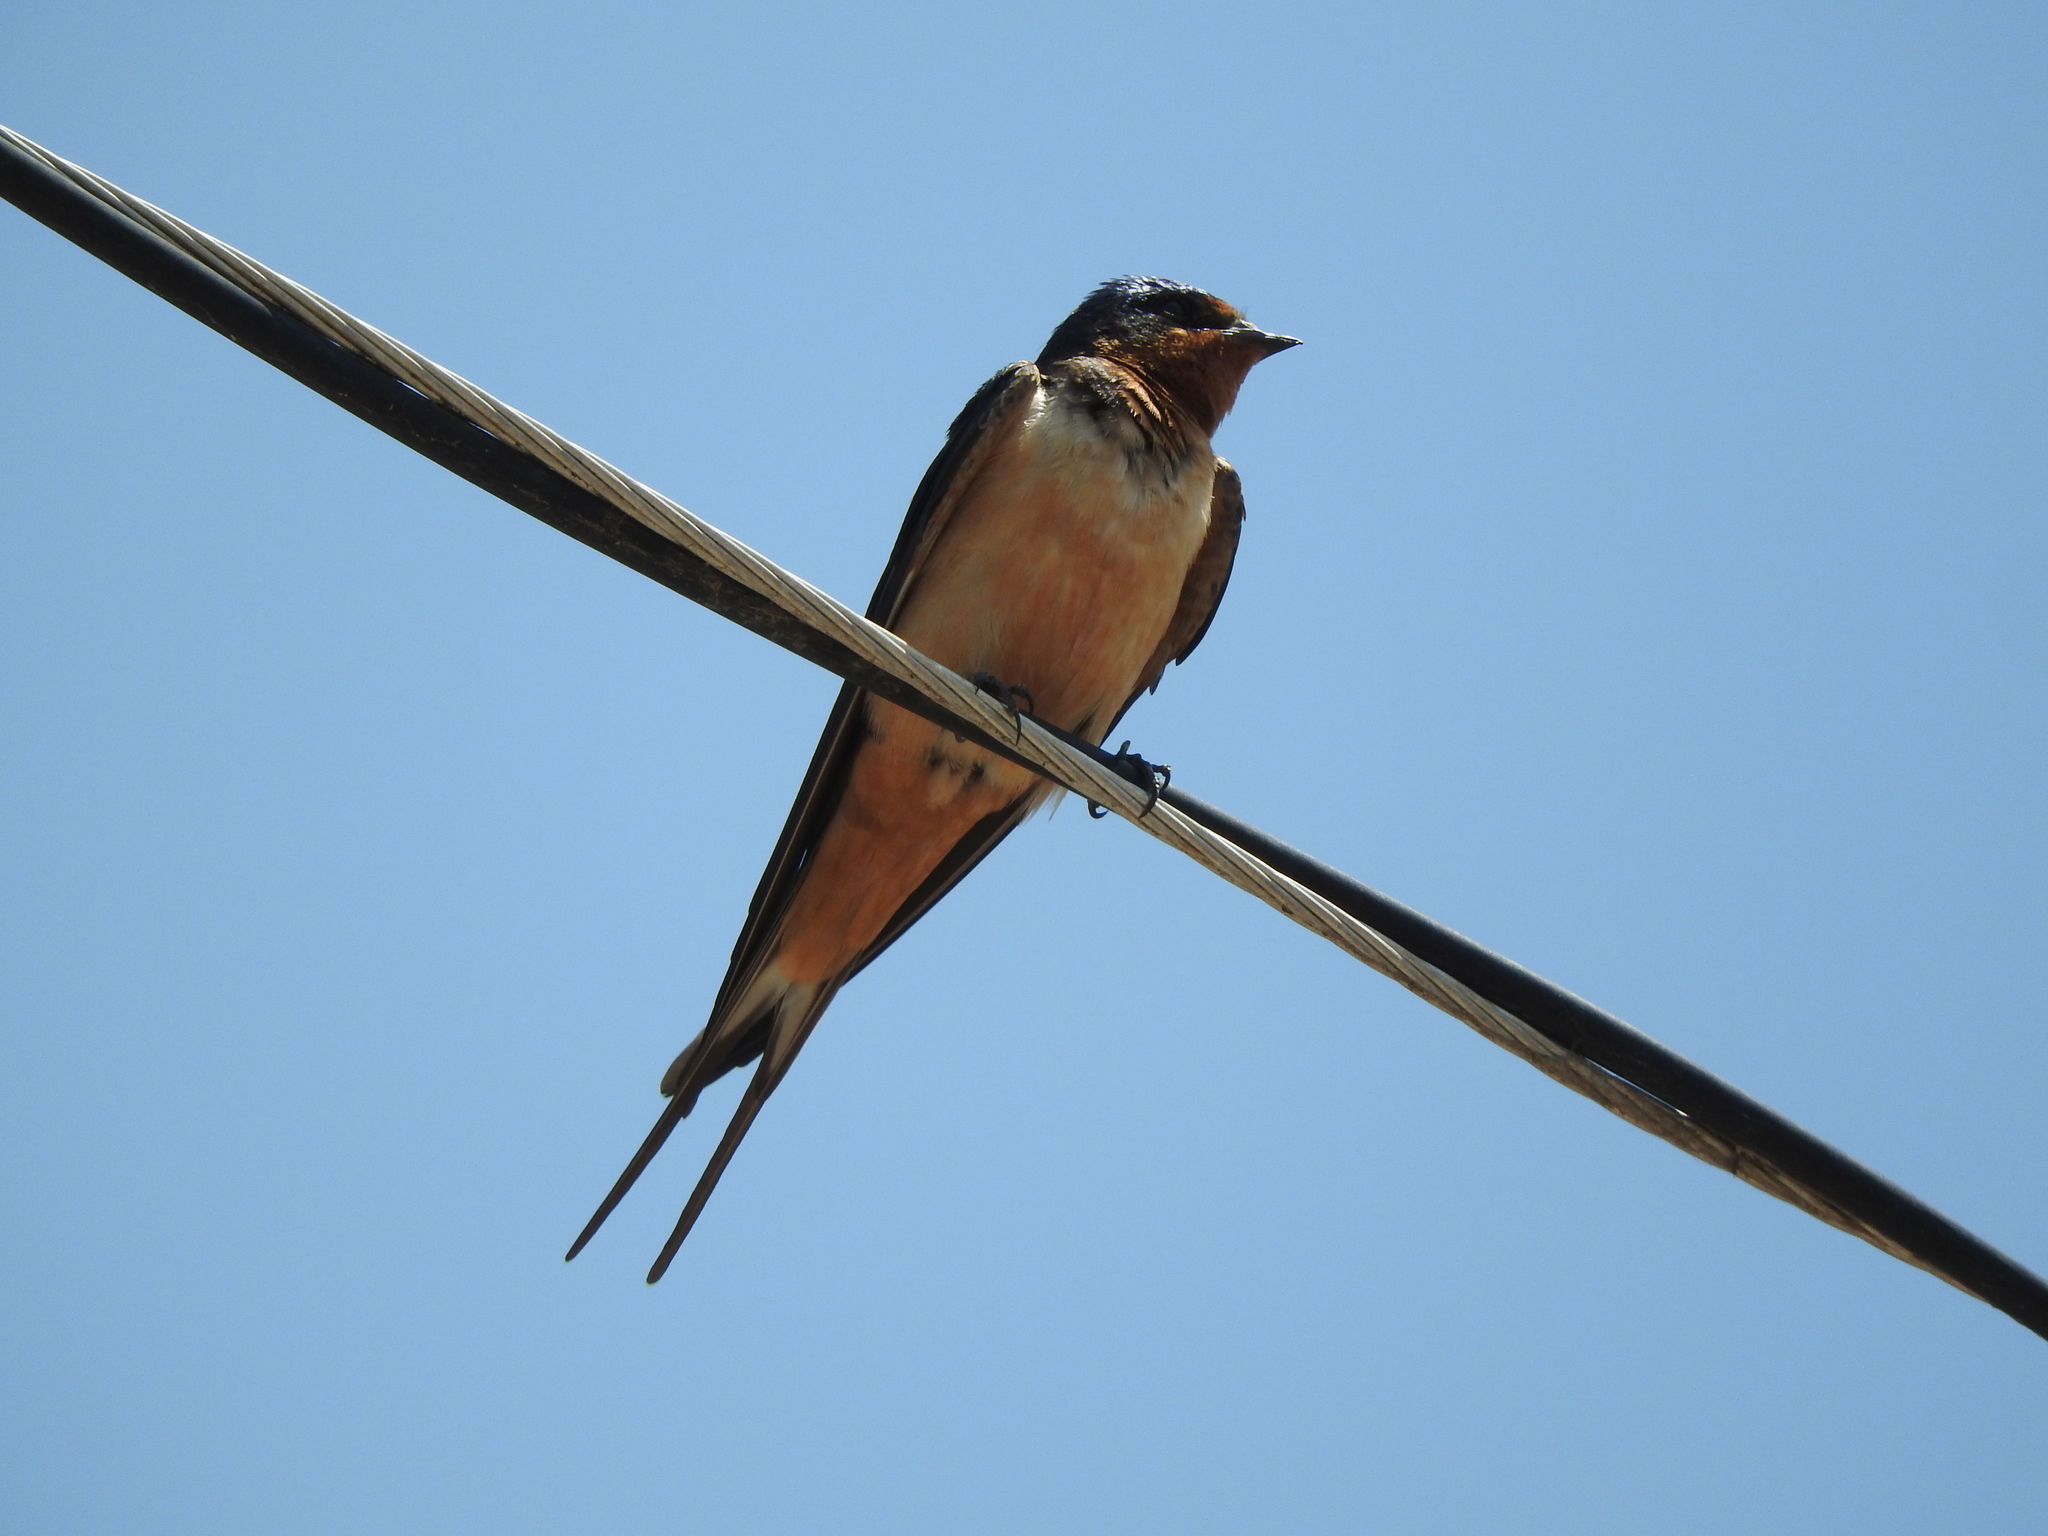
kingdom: Animalia
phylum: Chordata
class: Aves
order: Passeriformes
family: Hirundinidae
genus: Hirundo
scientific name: Hirundo rustica
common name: Barn swallow
